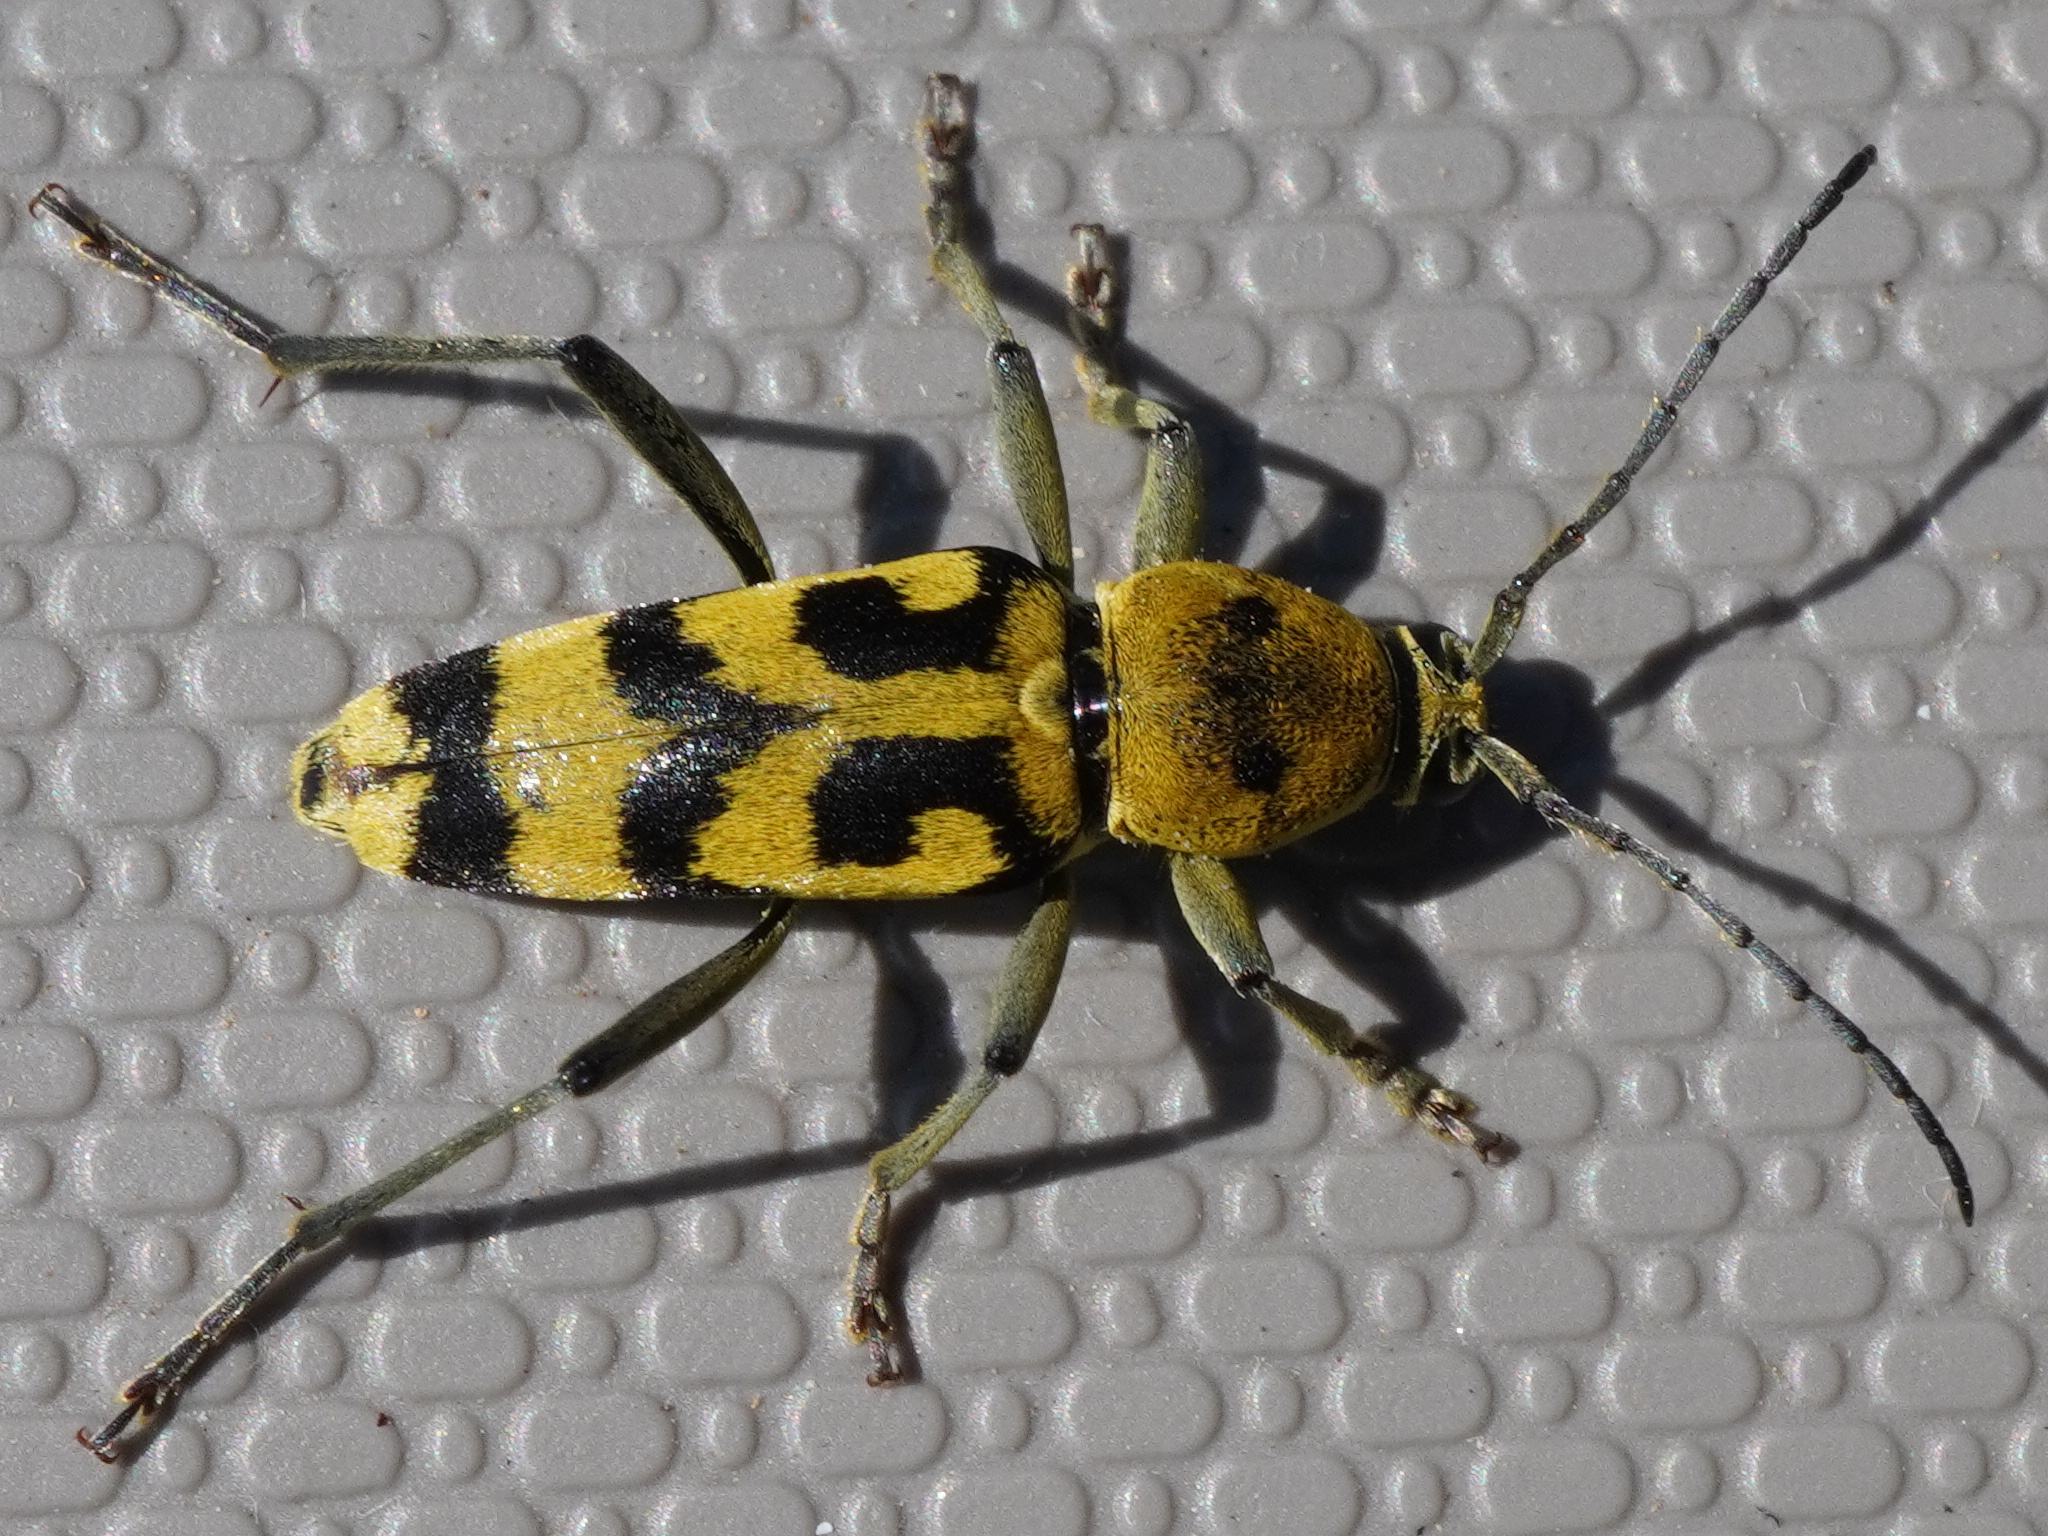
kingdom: Animalia
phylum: Arthropoda
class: Insecta
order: Coleoptera
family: Cerambycidae
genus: Chlorophorus
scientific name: Chlorophorus varius
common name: Grape wood borer
